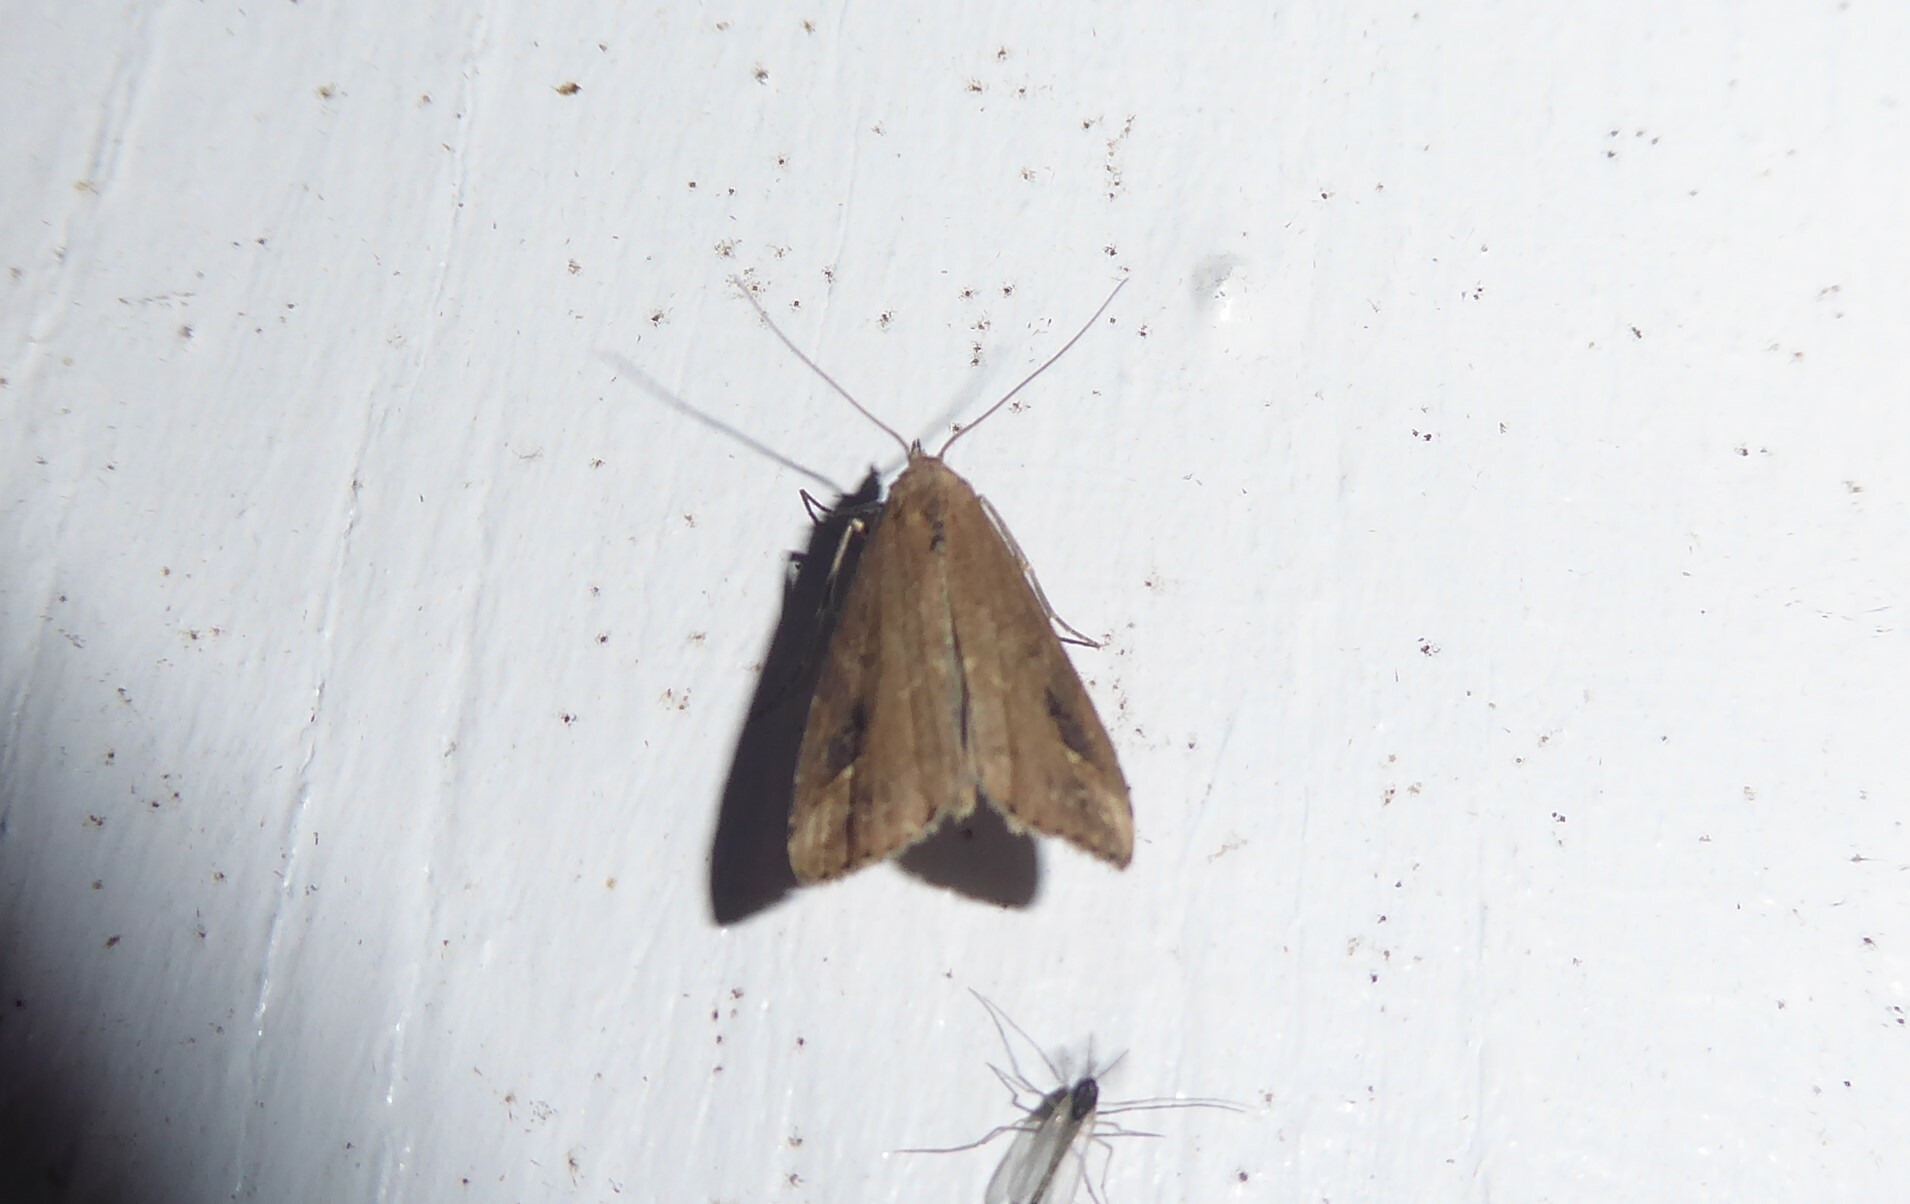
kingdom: Animalia
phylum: Arthropoda
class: Insecta
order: Lepidoptera
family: Erebidae
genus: Schrankia
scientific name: Schrankia costaestrigalis
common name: Pinion-streaked snout
